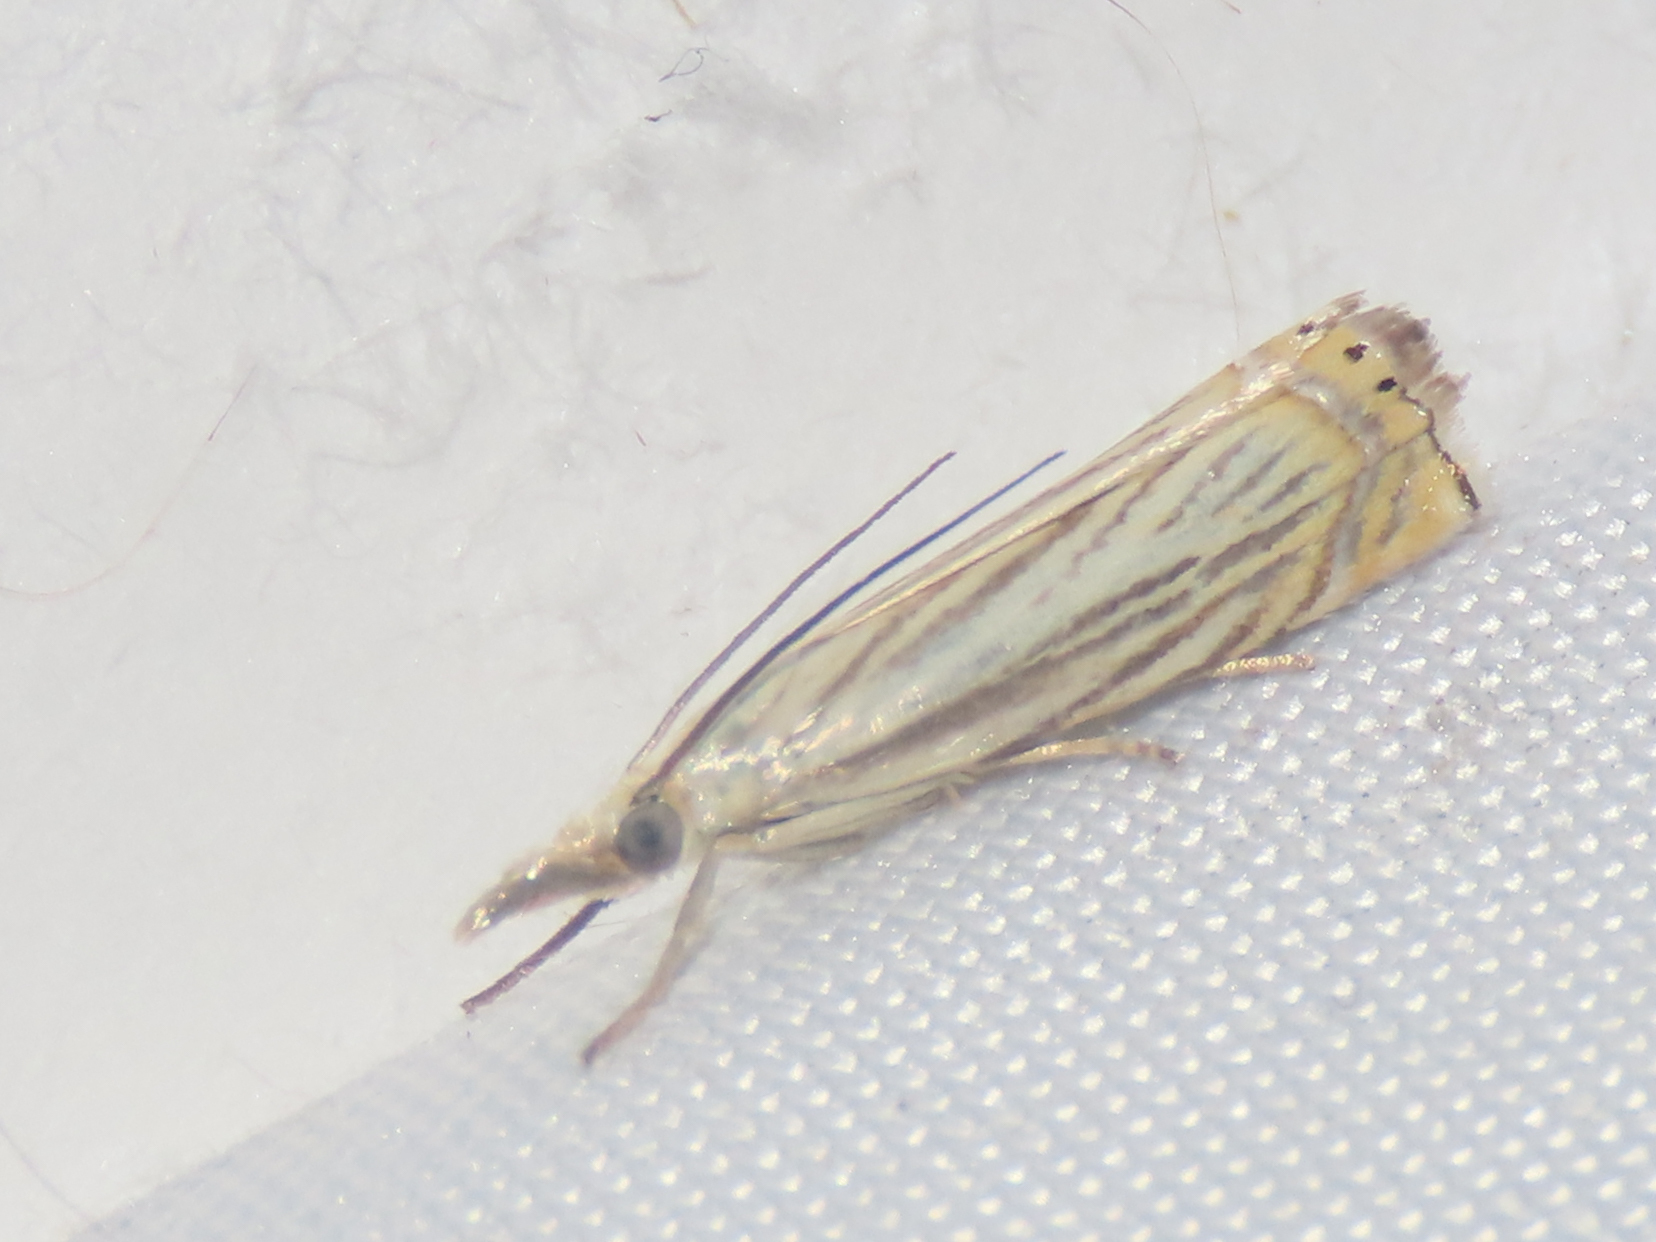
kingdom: Animalia
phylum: Arthropoda
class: Insecta
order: Lepidoptera
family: Crambidae
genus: Chrysoteuchia
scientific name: Chrysoteuchia topiarius
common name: Topiary grass-veneer
